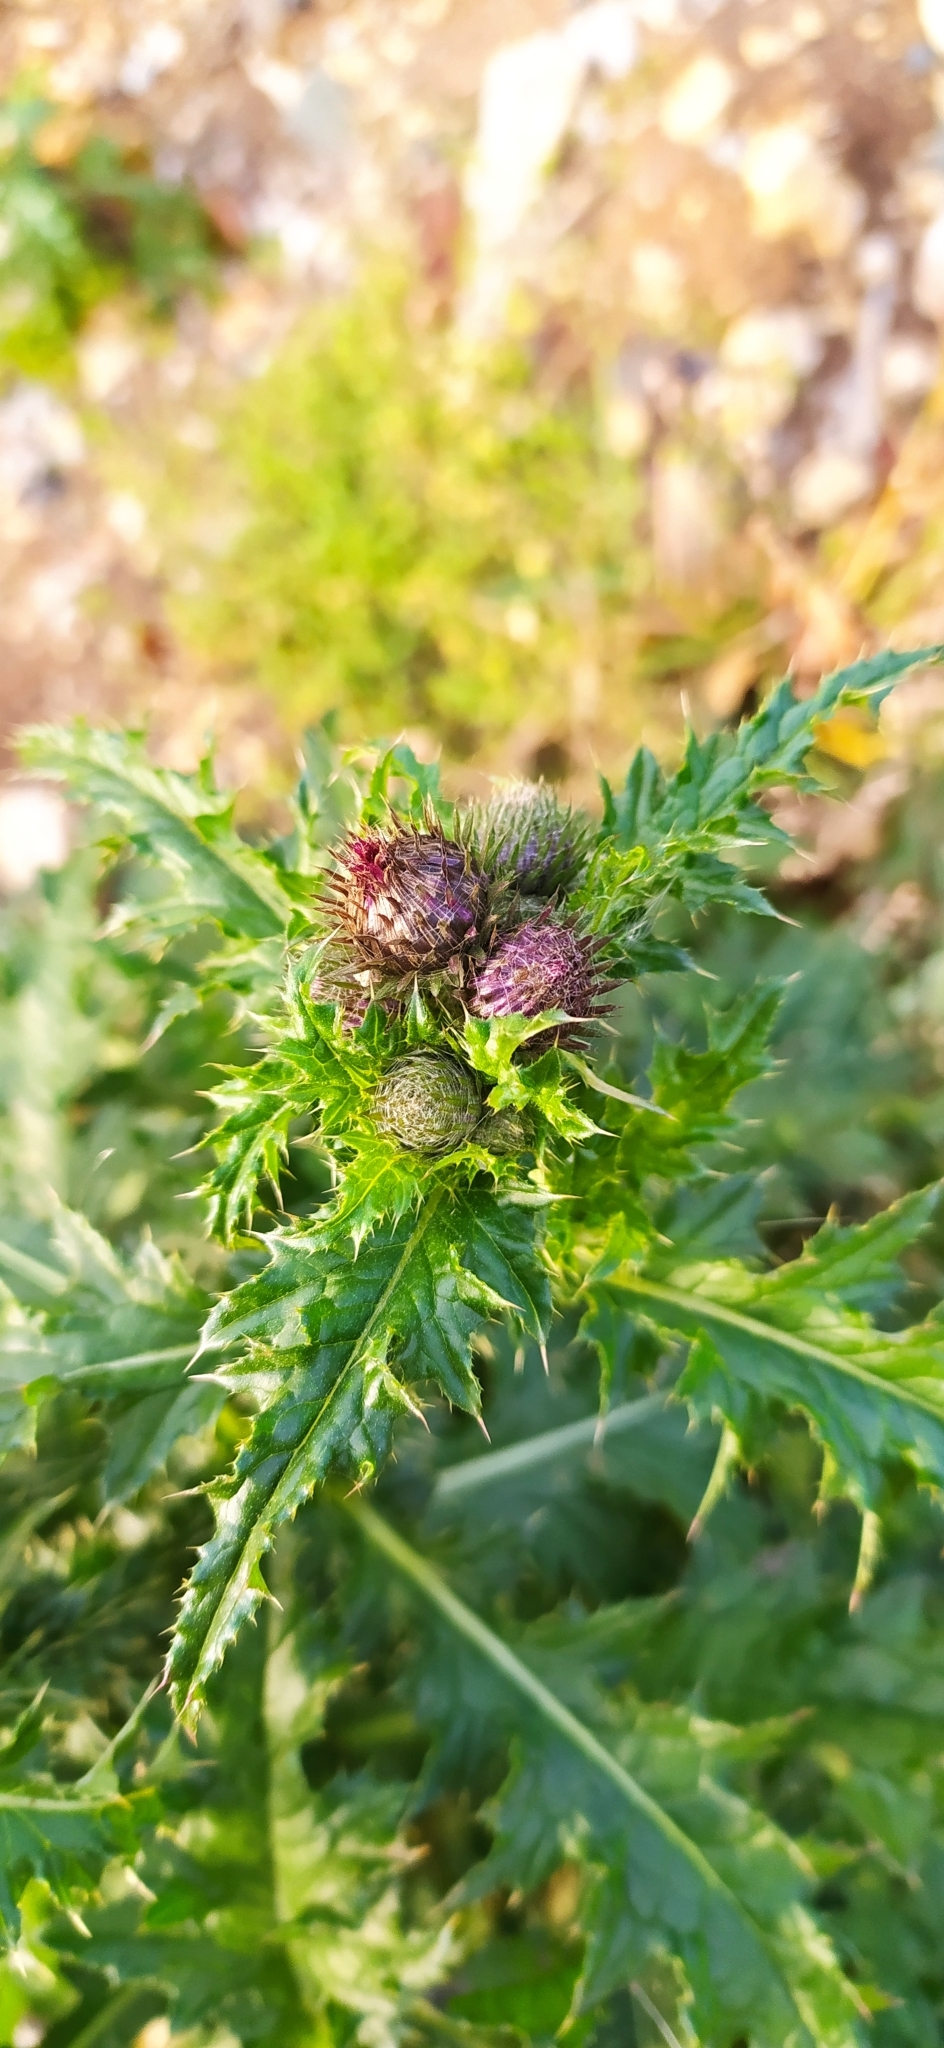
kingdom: Plantae
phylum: Tracheophyta
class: Magnoliopsida
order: Asterales
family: Asteraceae
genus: Carduus
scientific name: Carduus crispus
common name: Welted thistle
